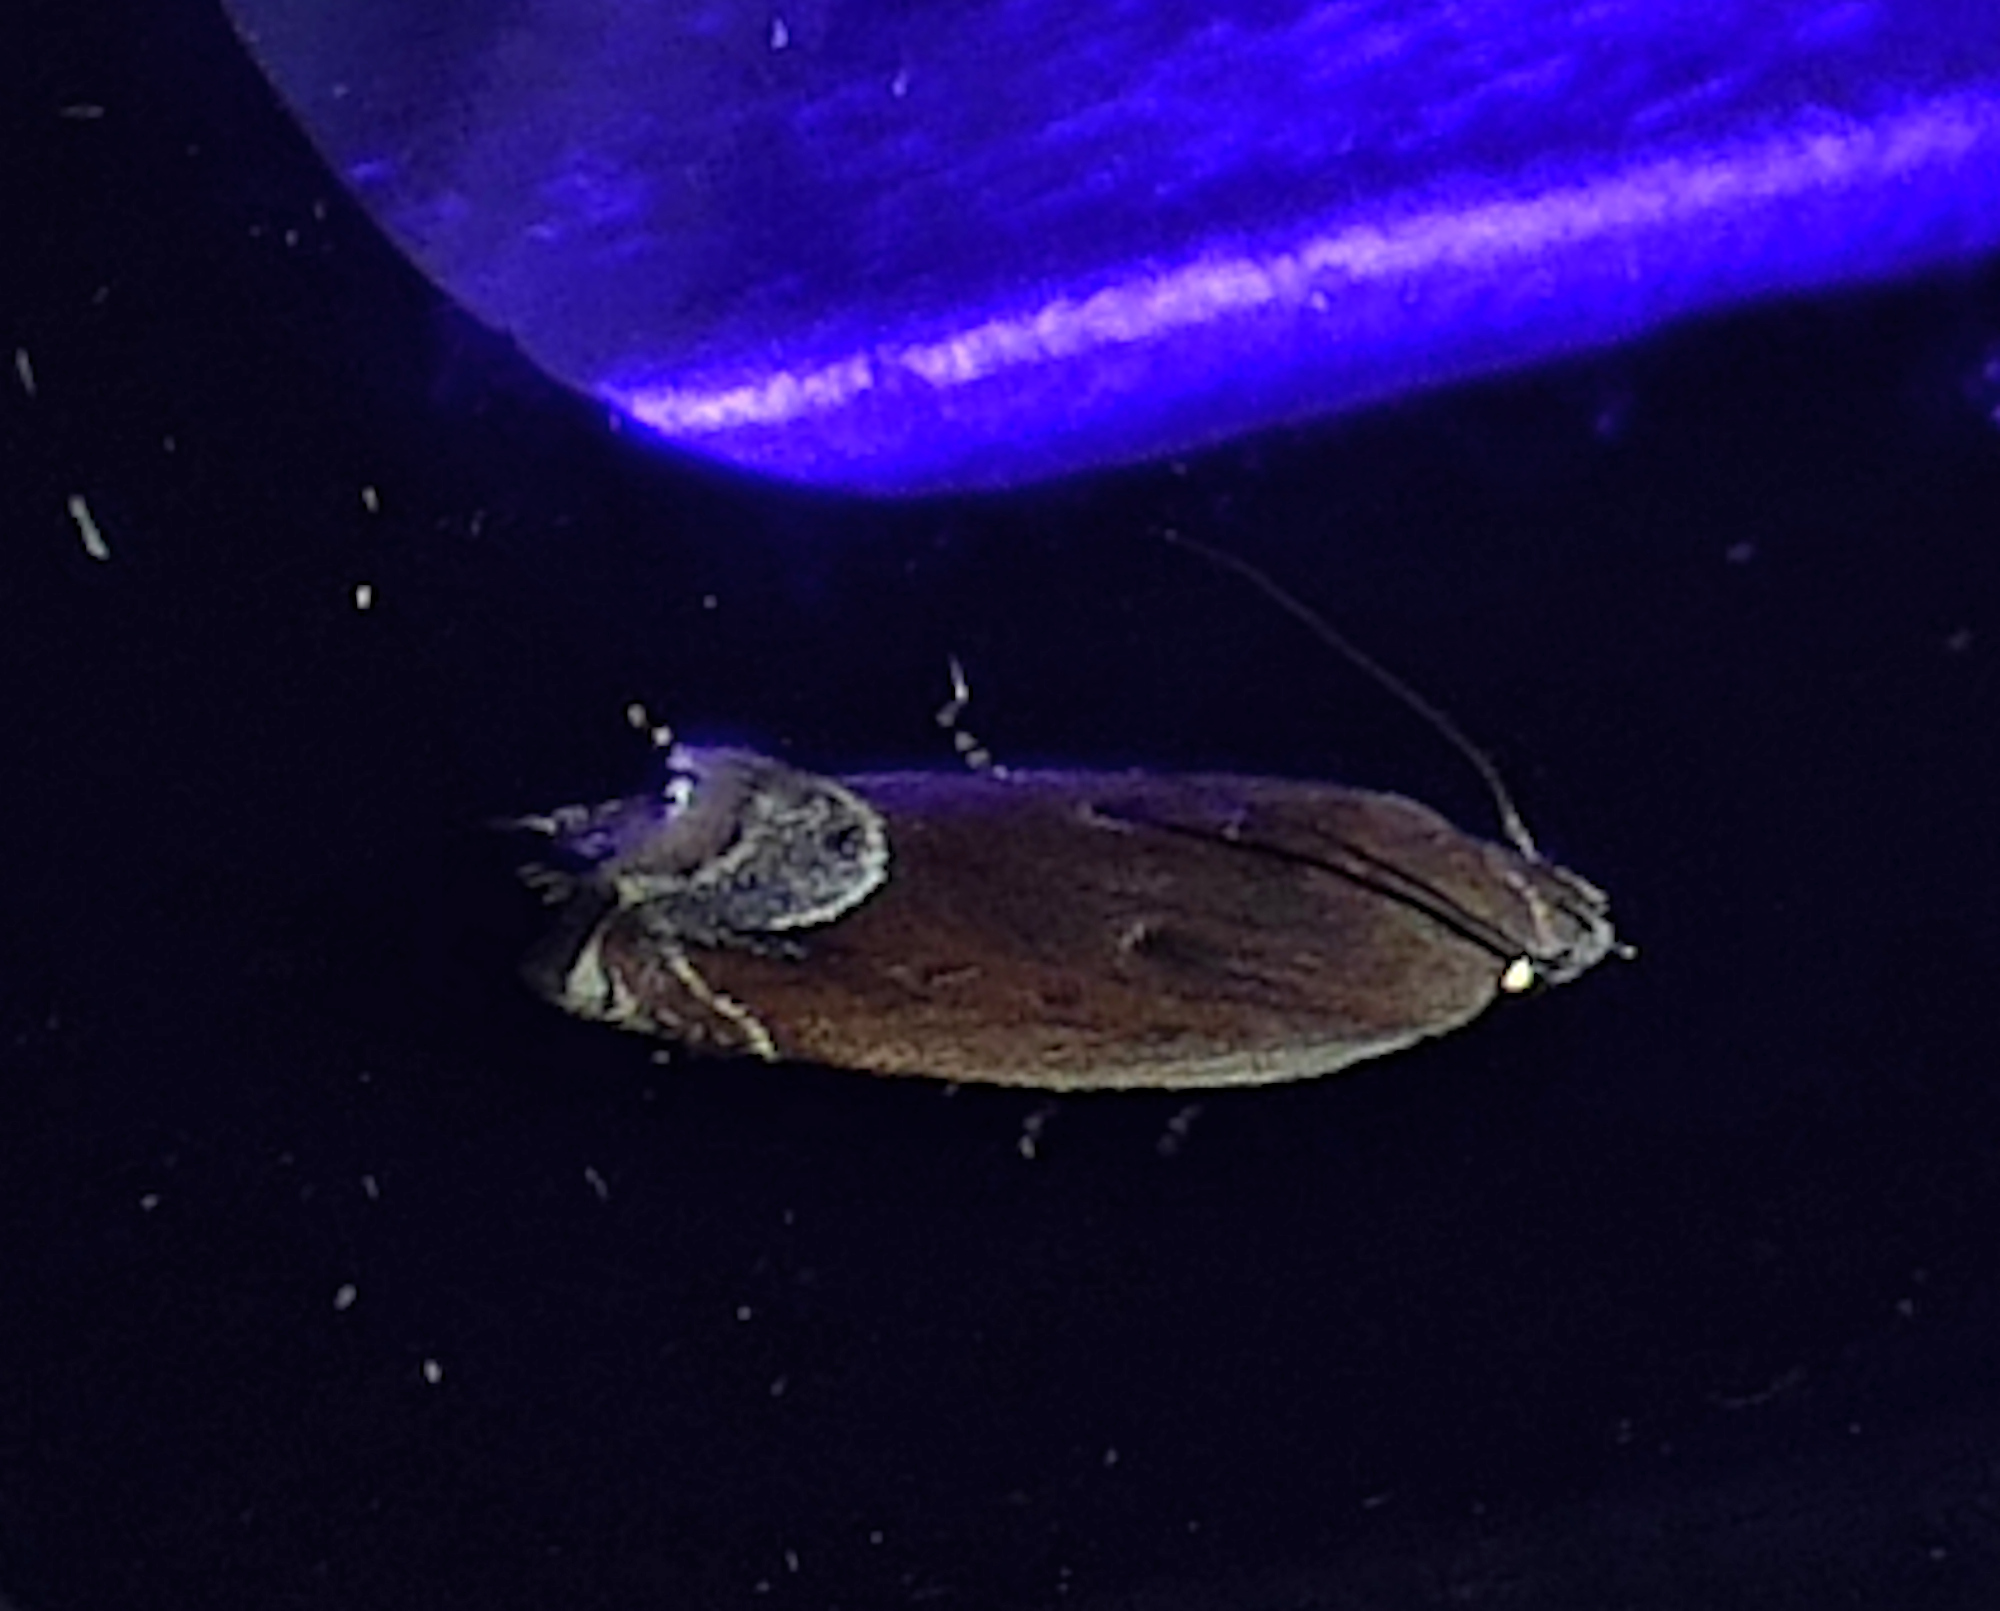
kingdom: Animalia
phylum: Arthropoda
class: Insecta
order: Lepidoptera
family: Gelechiidae
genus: Anacampsis
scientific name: Anacampsis paltodoriella
